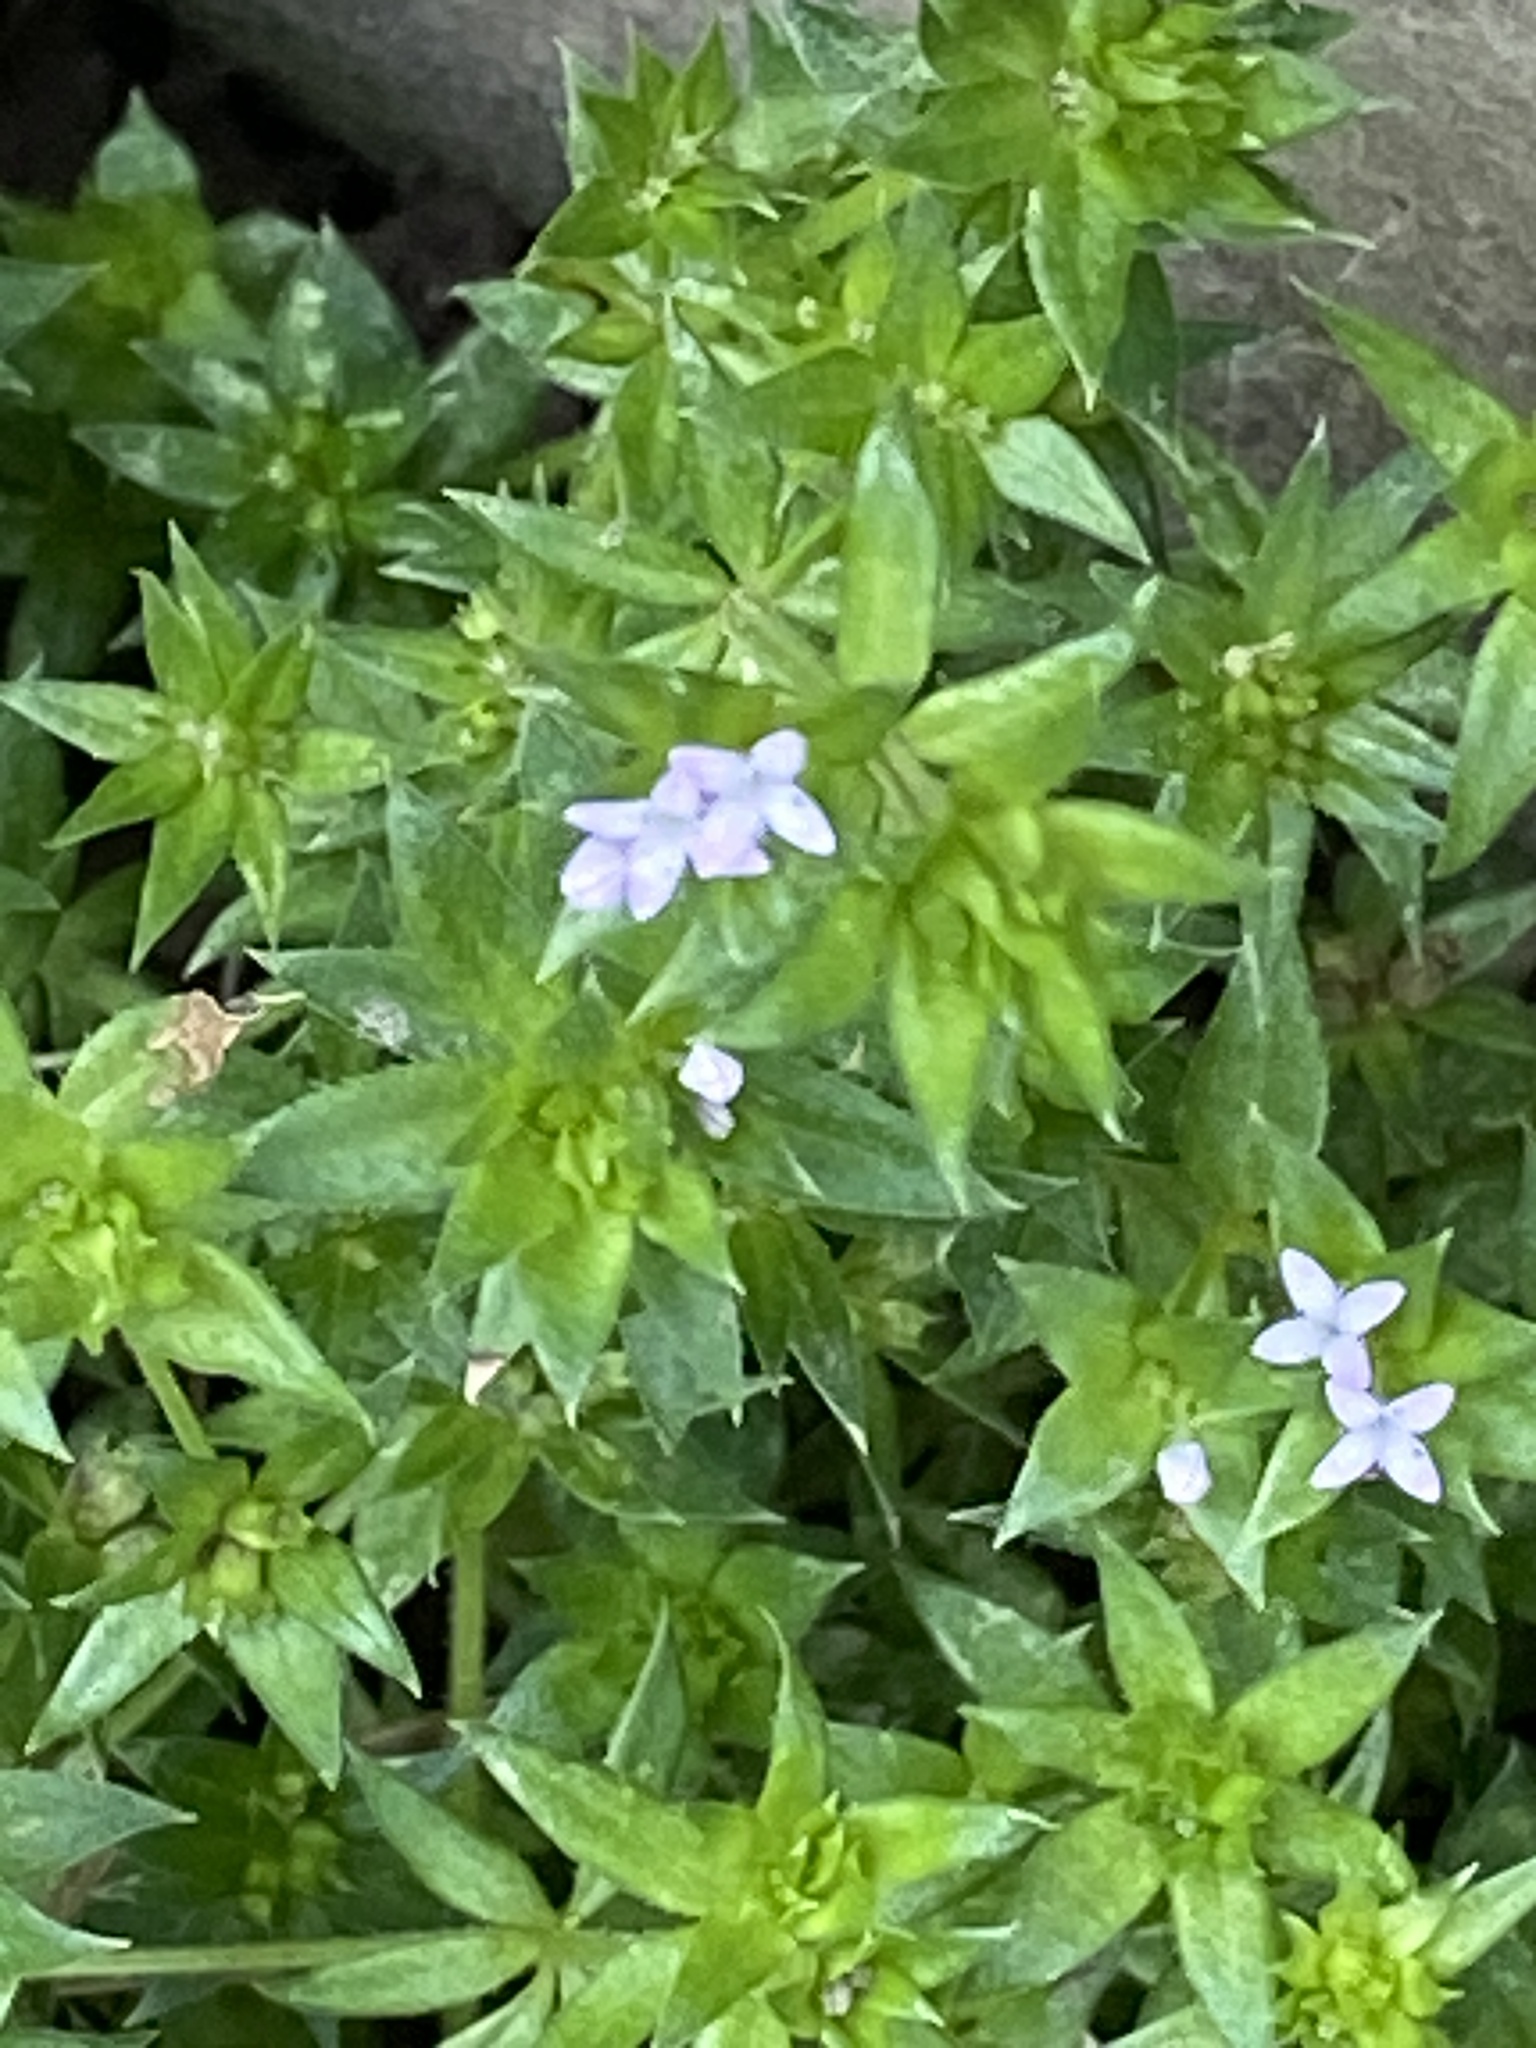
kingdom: Plantae
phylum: Tracheophyta
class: Magnoliopsida
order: Gentianales
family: Rubiaceae
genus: Sherardia
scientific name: Sherardia arvensis
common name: Field madder
